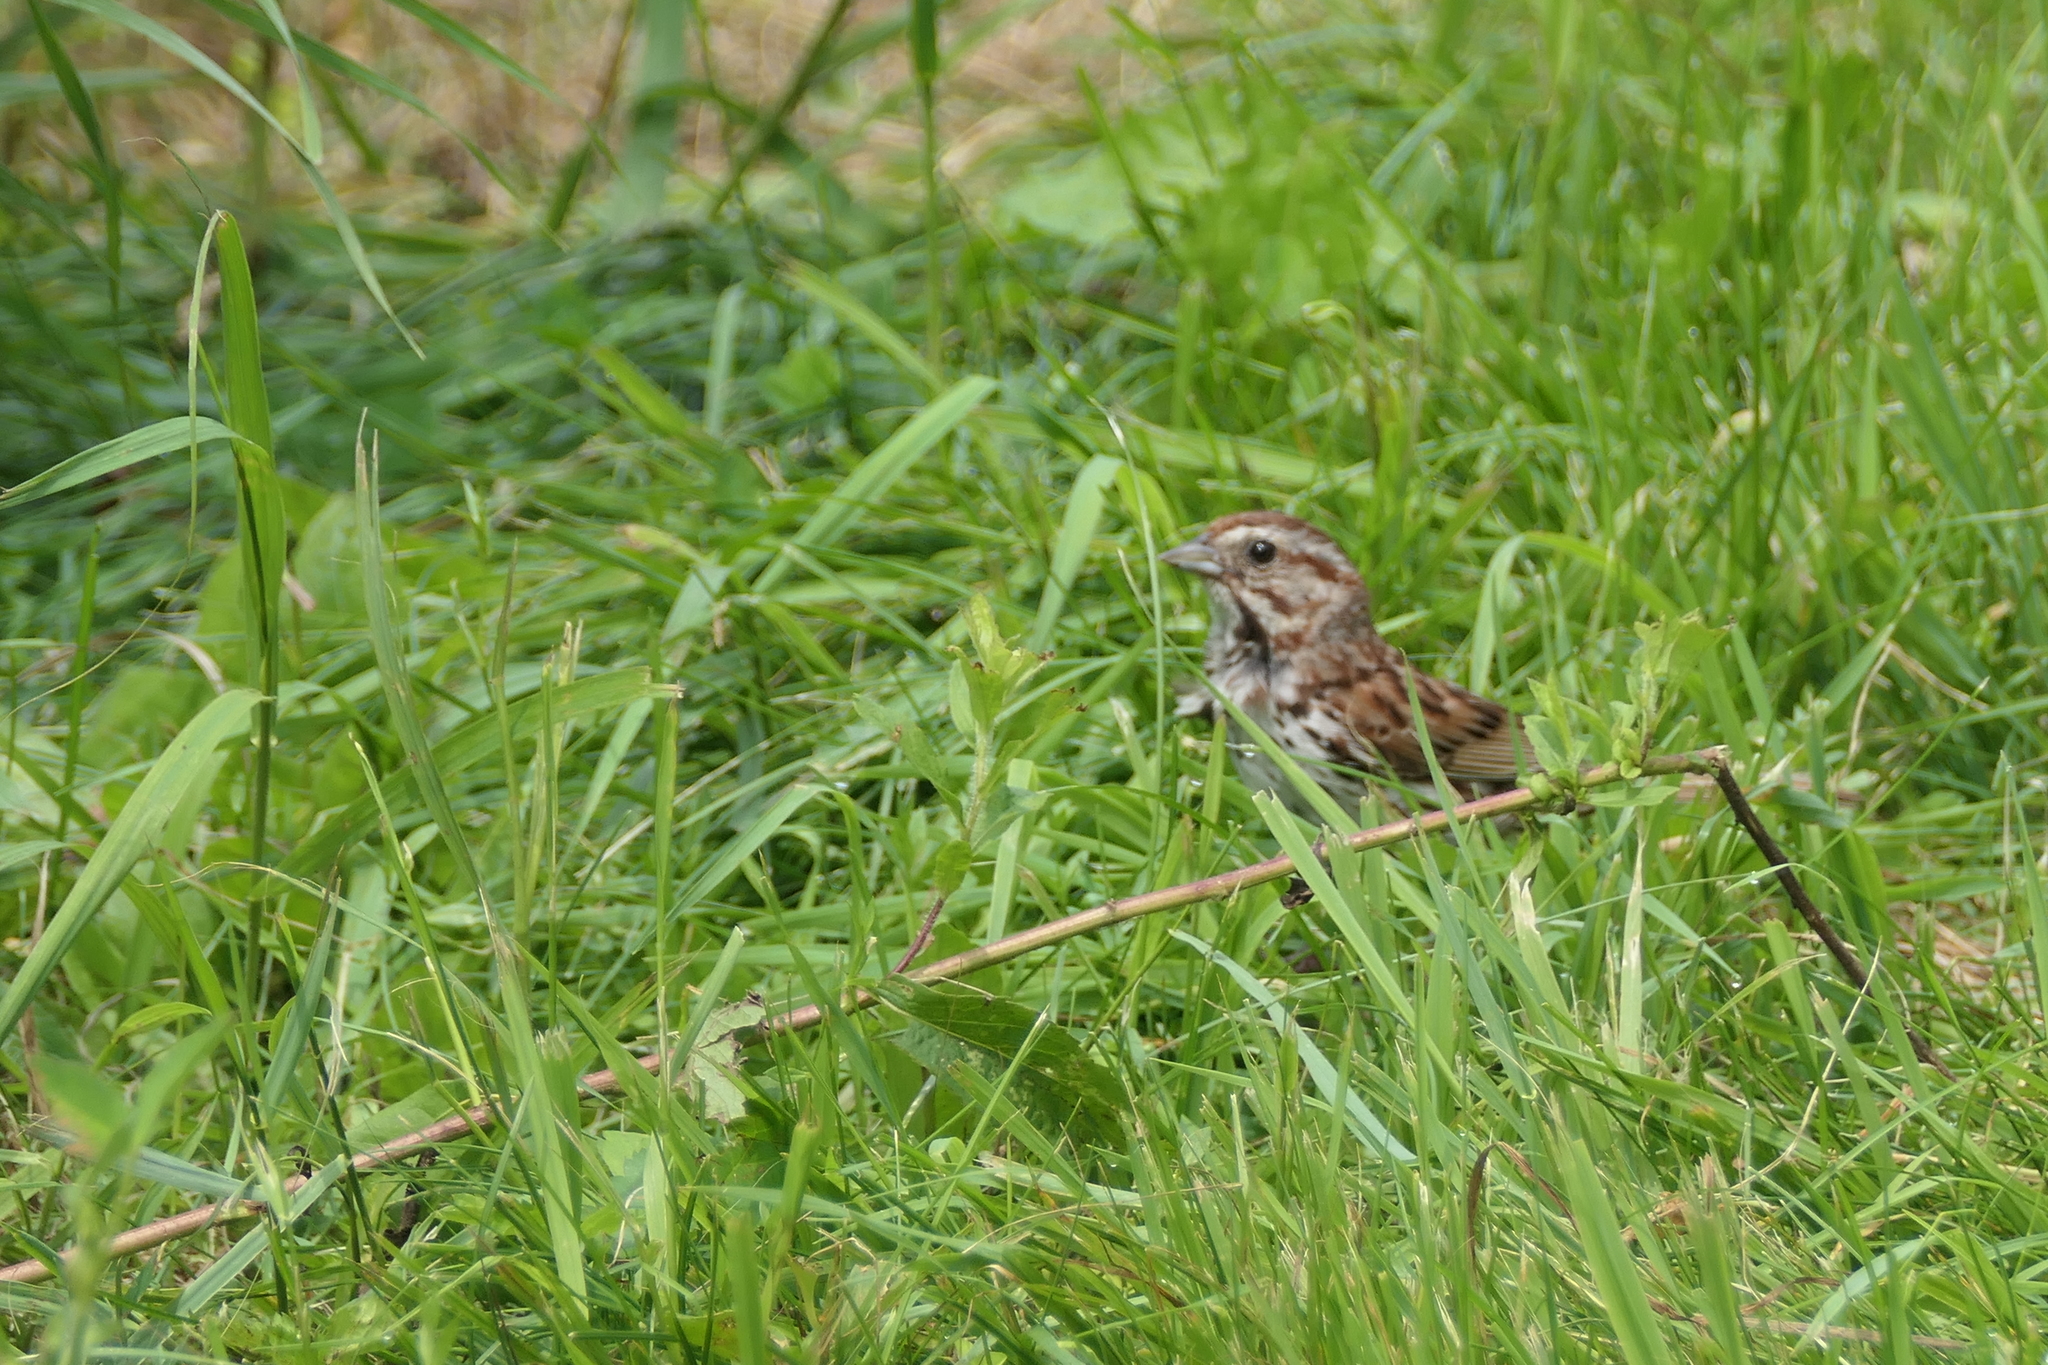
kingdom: Animalia
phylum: Chordata
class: Aves
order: Passeriformes
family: Passerellidae
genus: Melospiza
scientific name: Melospiza melodia
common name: Song sparrow
